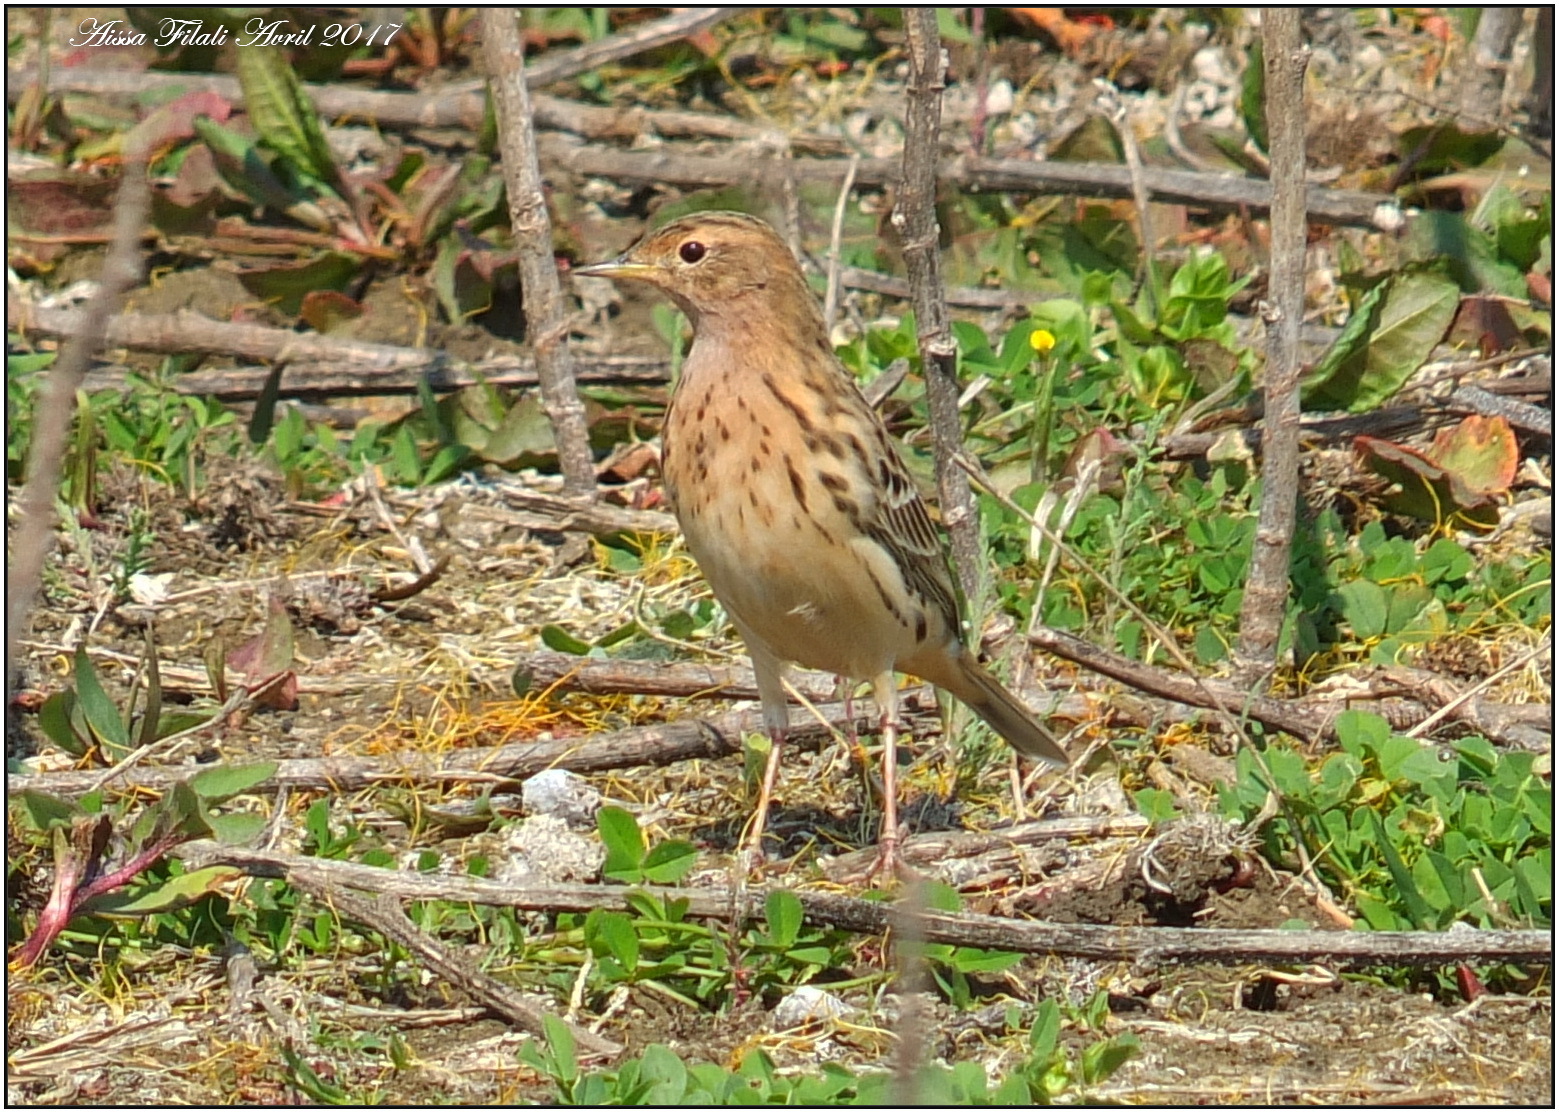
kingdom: Animalia
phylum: Chordata
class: Aves
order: Passeriformes
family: Motacillidae
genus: Anthus
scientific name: Anthus cervinus
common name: Red-throated pipit
